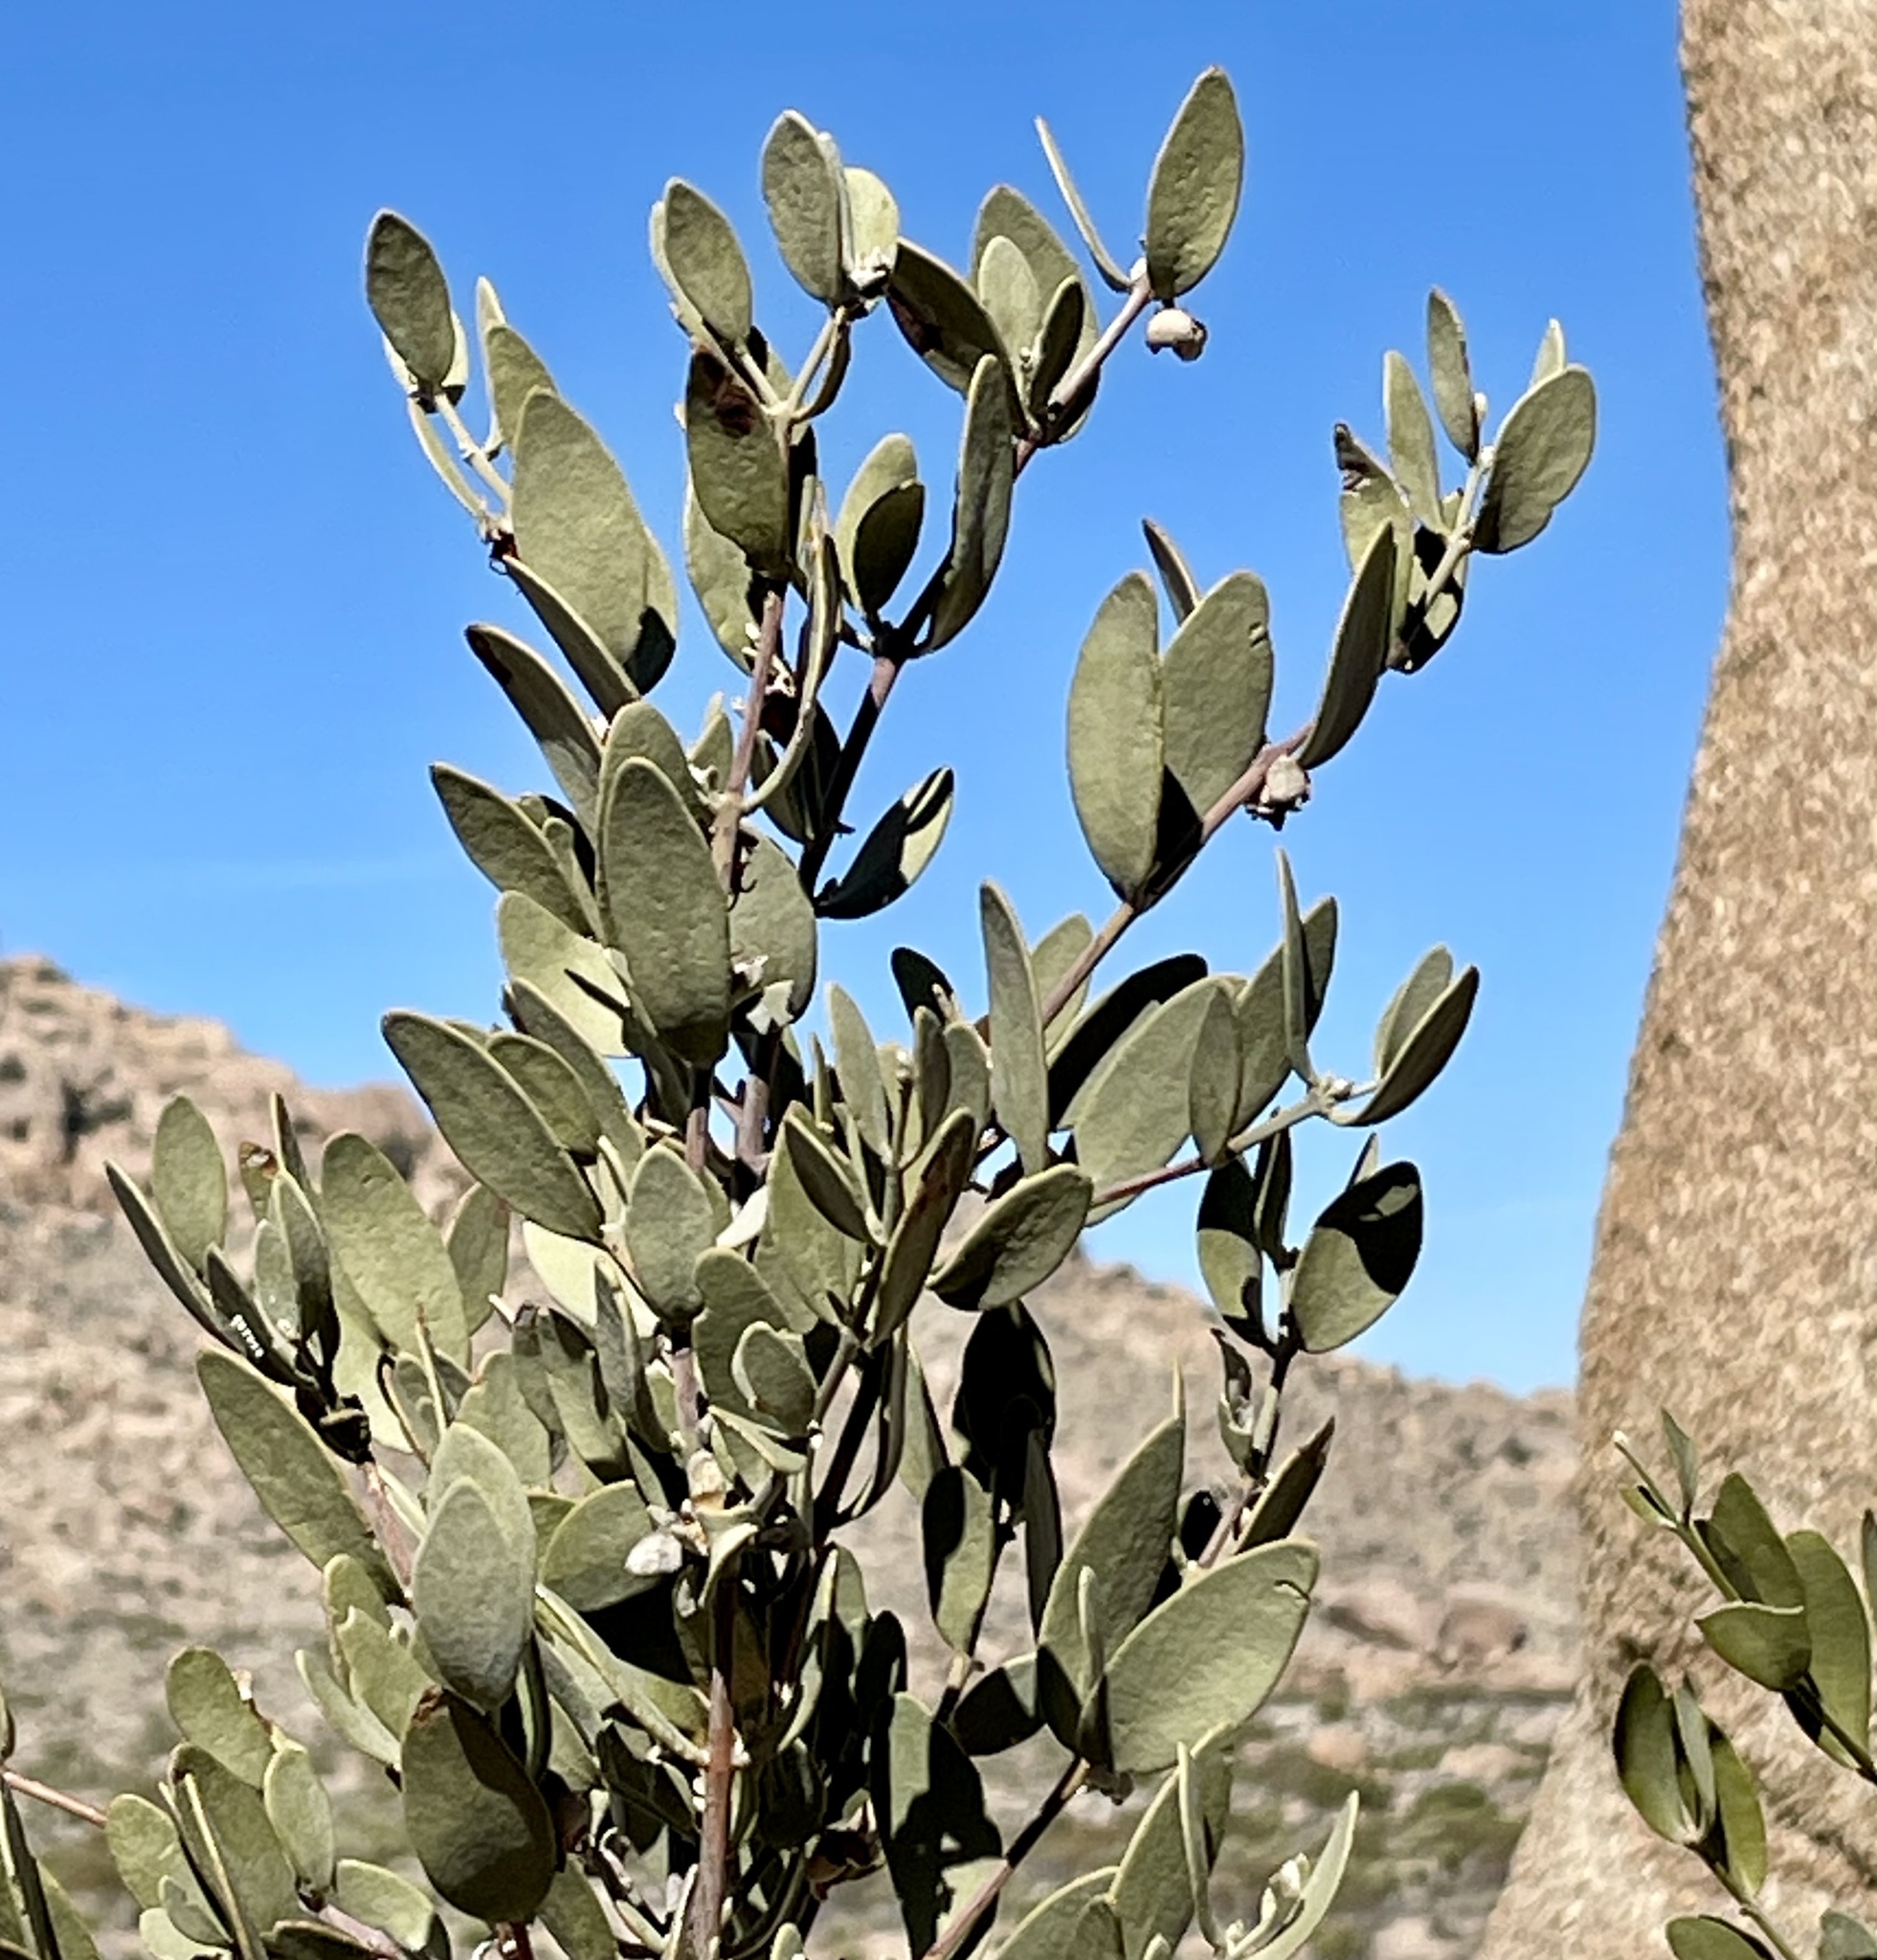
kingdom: Plantae
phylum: Tracheophyta
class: Magnoliopsida
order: Caryophyllales
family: Simmondsiaceae
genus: Simmondsia
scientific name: Simmondsia chinensis
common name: Jojoba
